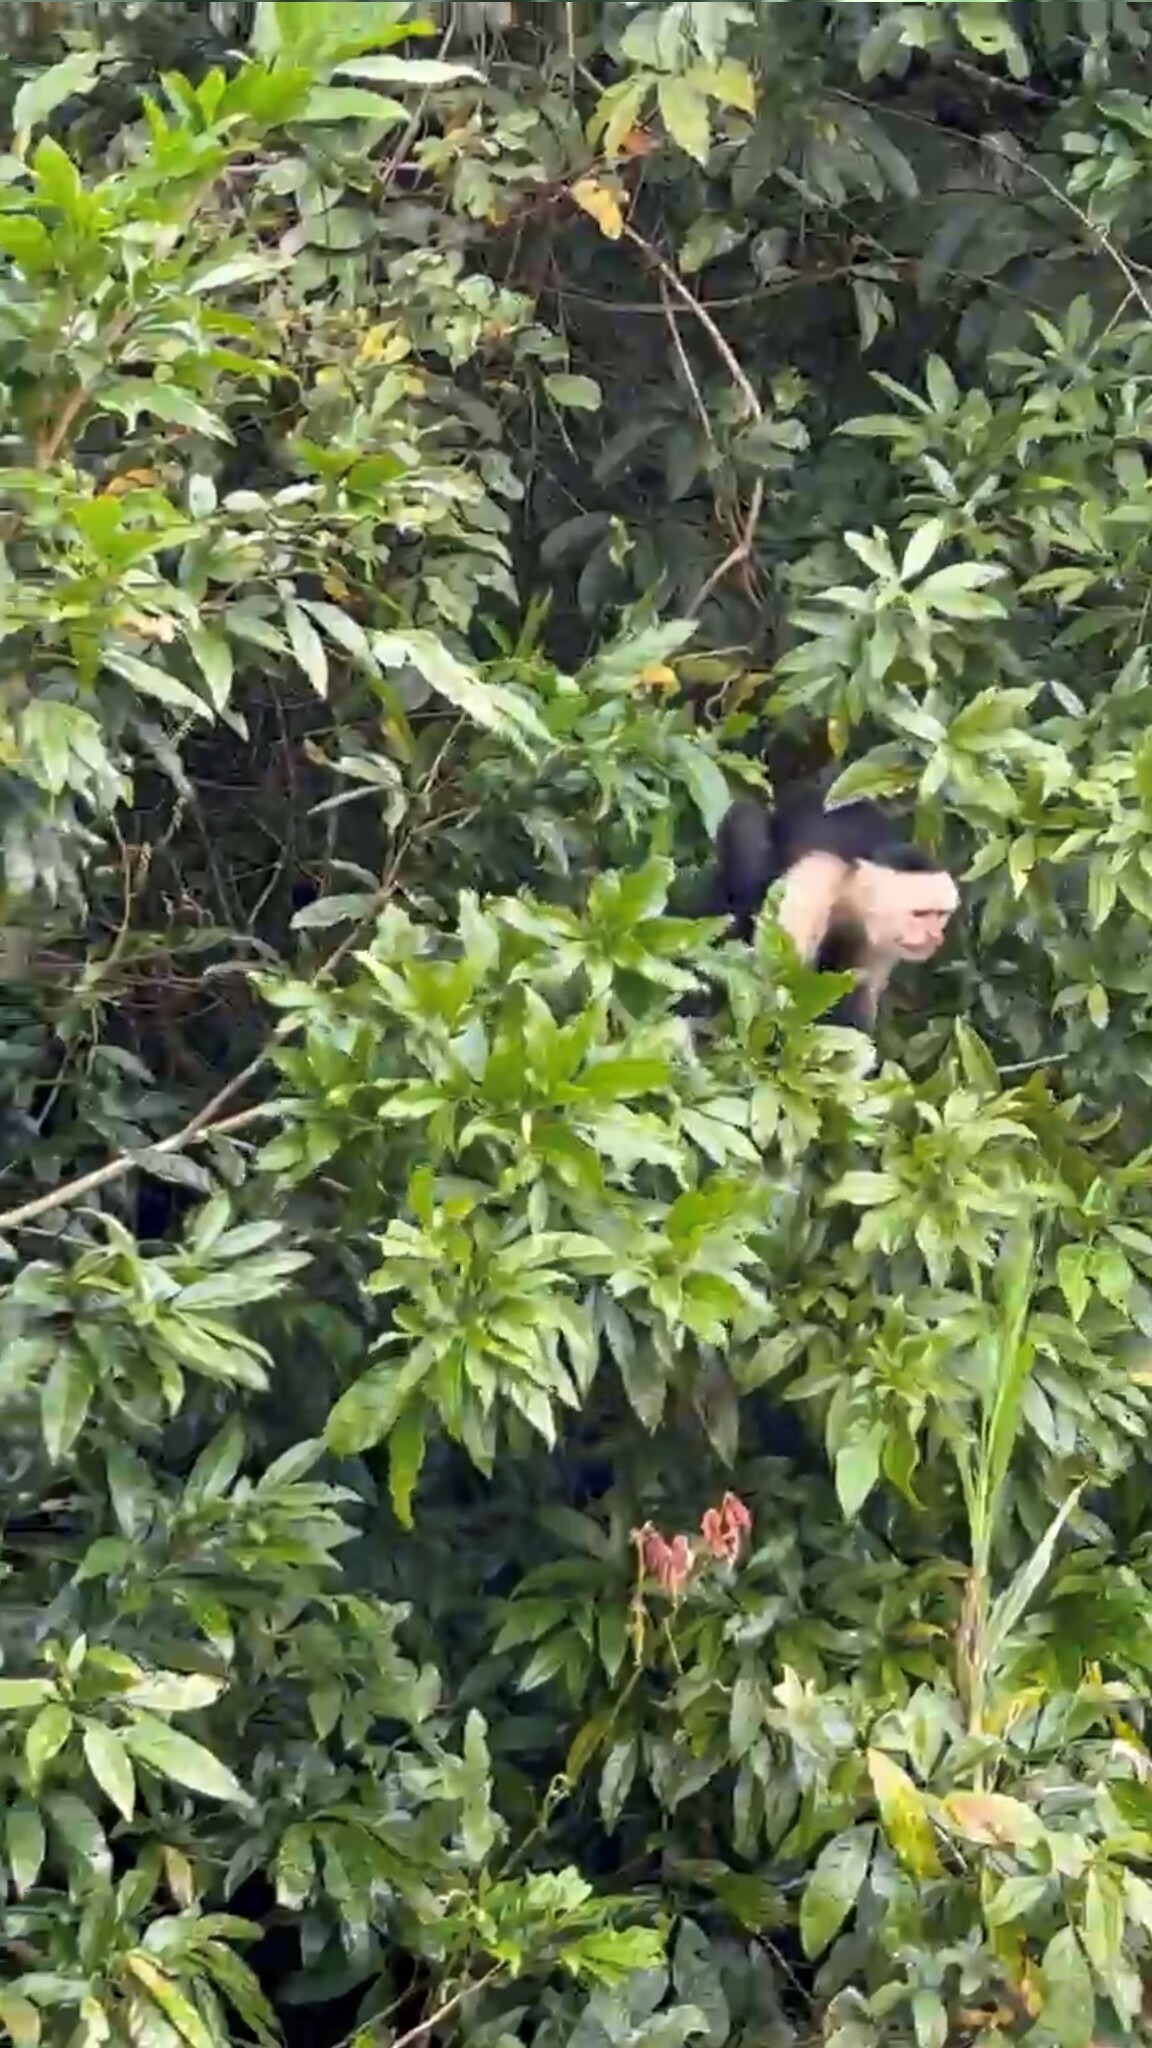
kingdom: Animalia
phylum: Chordata
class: Mammalia
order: Primates
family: Cebidae
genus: Cebus
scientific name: Cebus imitator
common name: Panamanian white-faced capuchin
